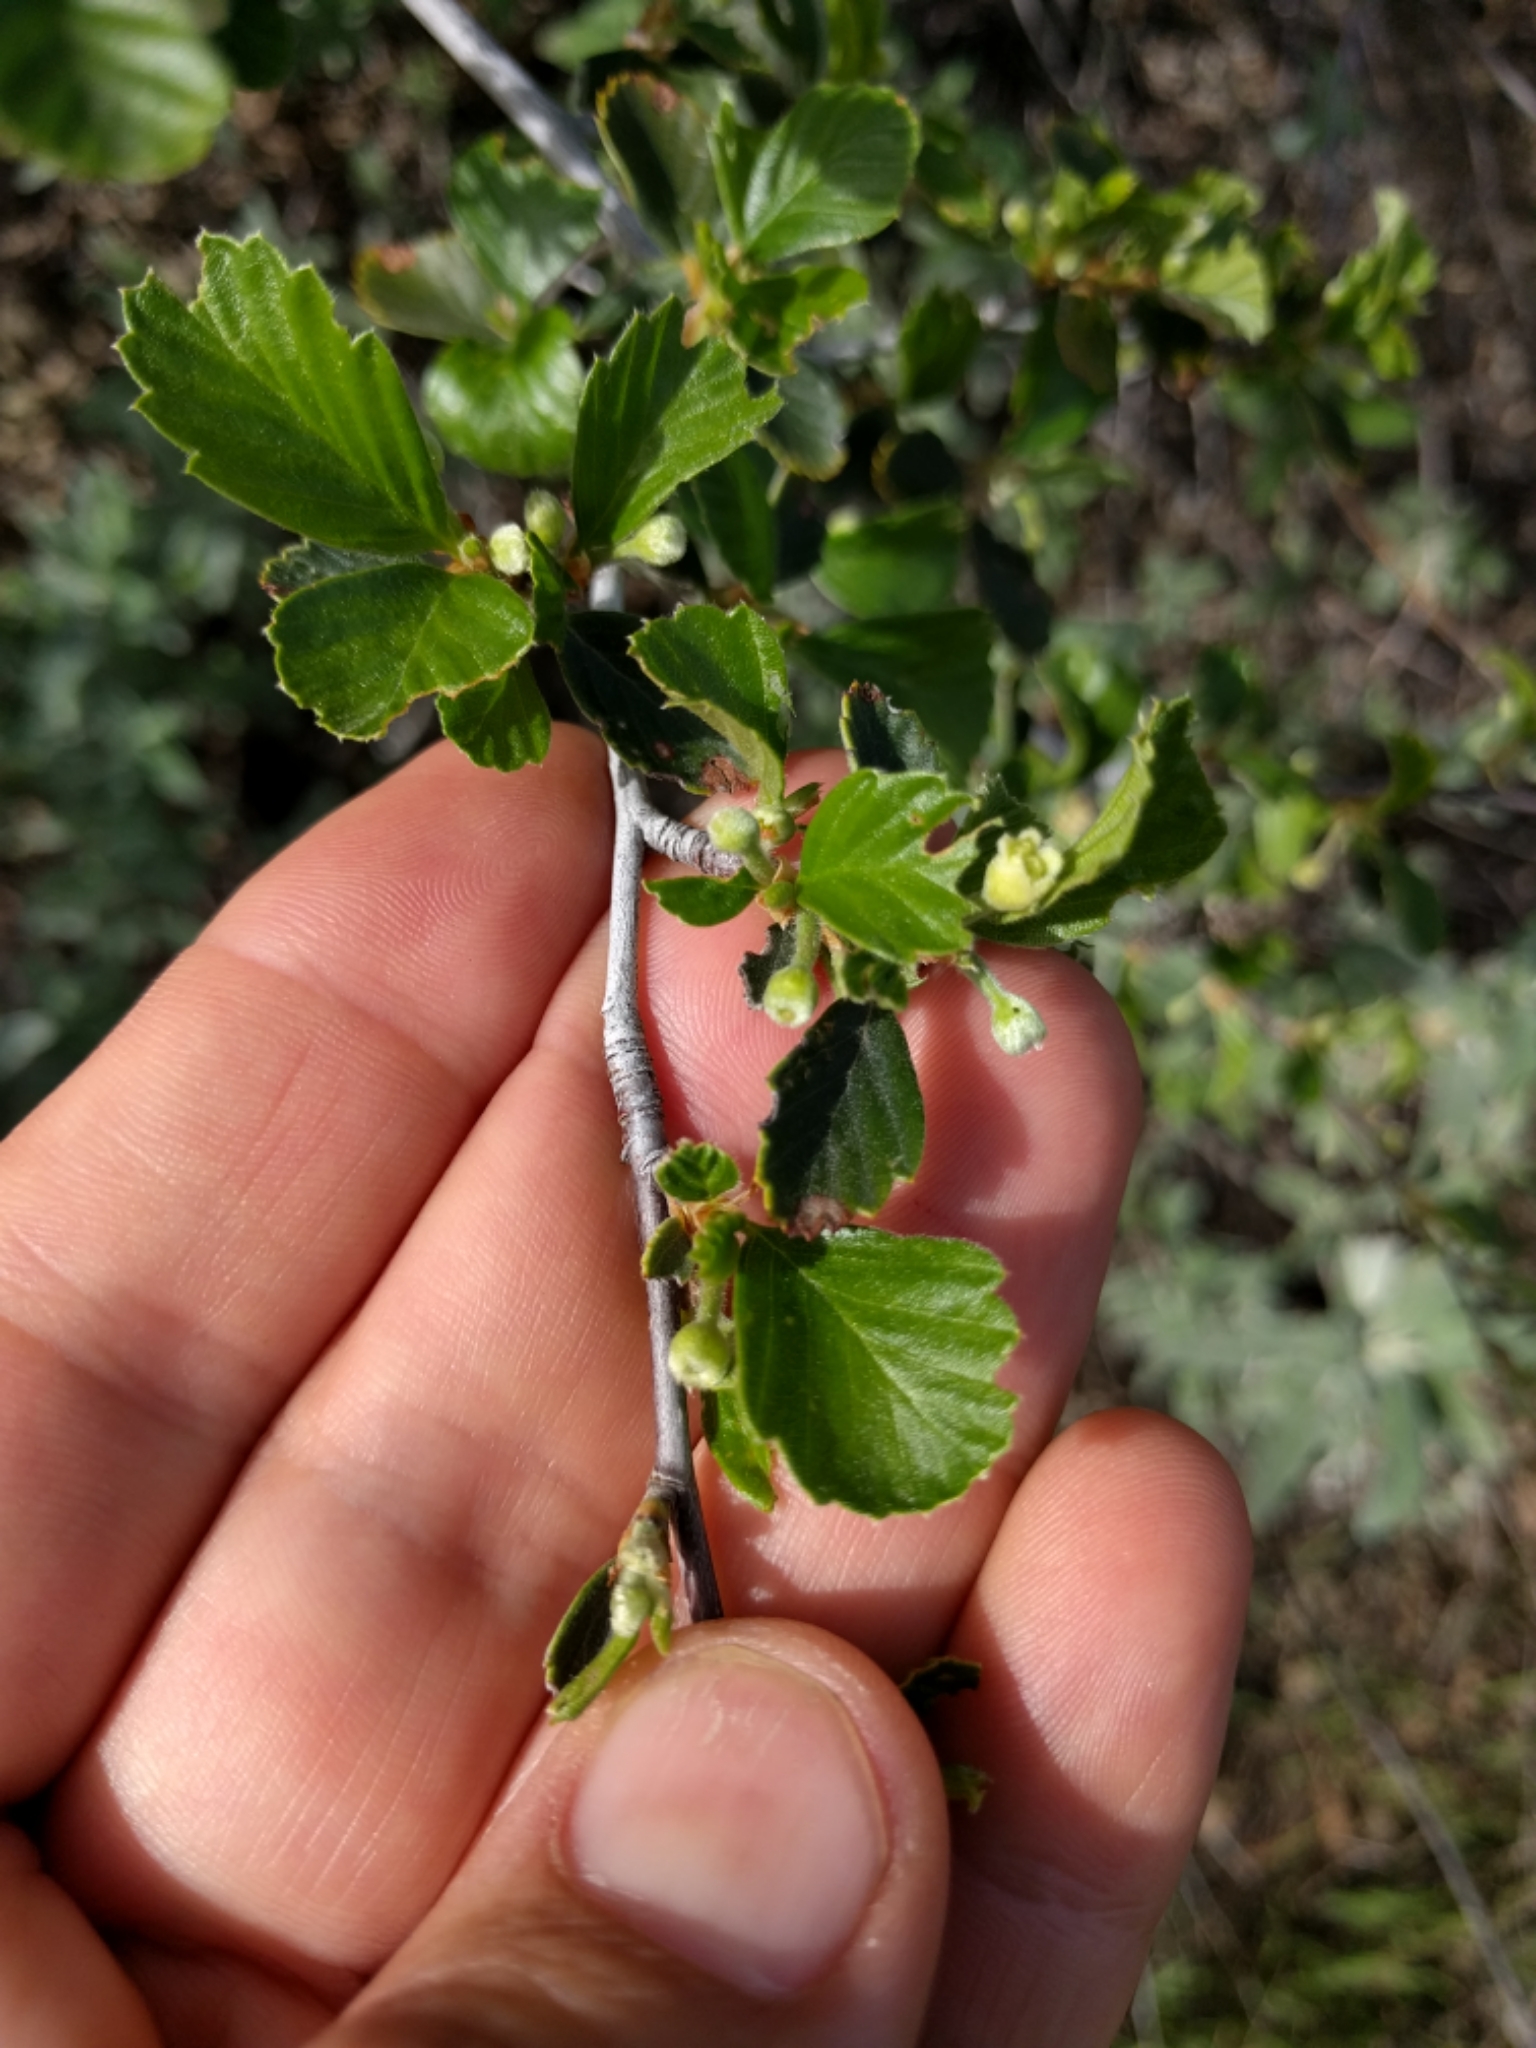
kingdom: Plantae
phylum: Tracheophyta
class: Magnoliopsida
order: Rosales
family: Rosaceae
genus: Cercocarpus
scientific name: Cercocarpus betuloides
